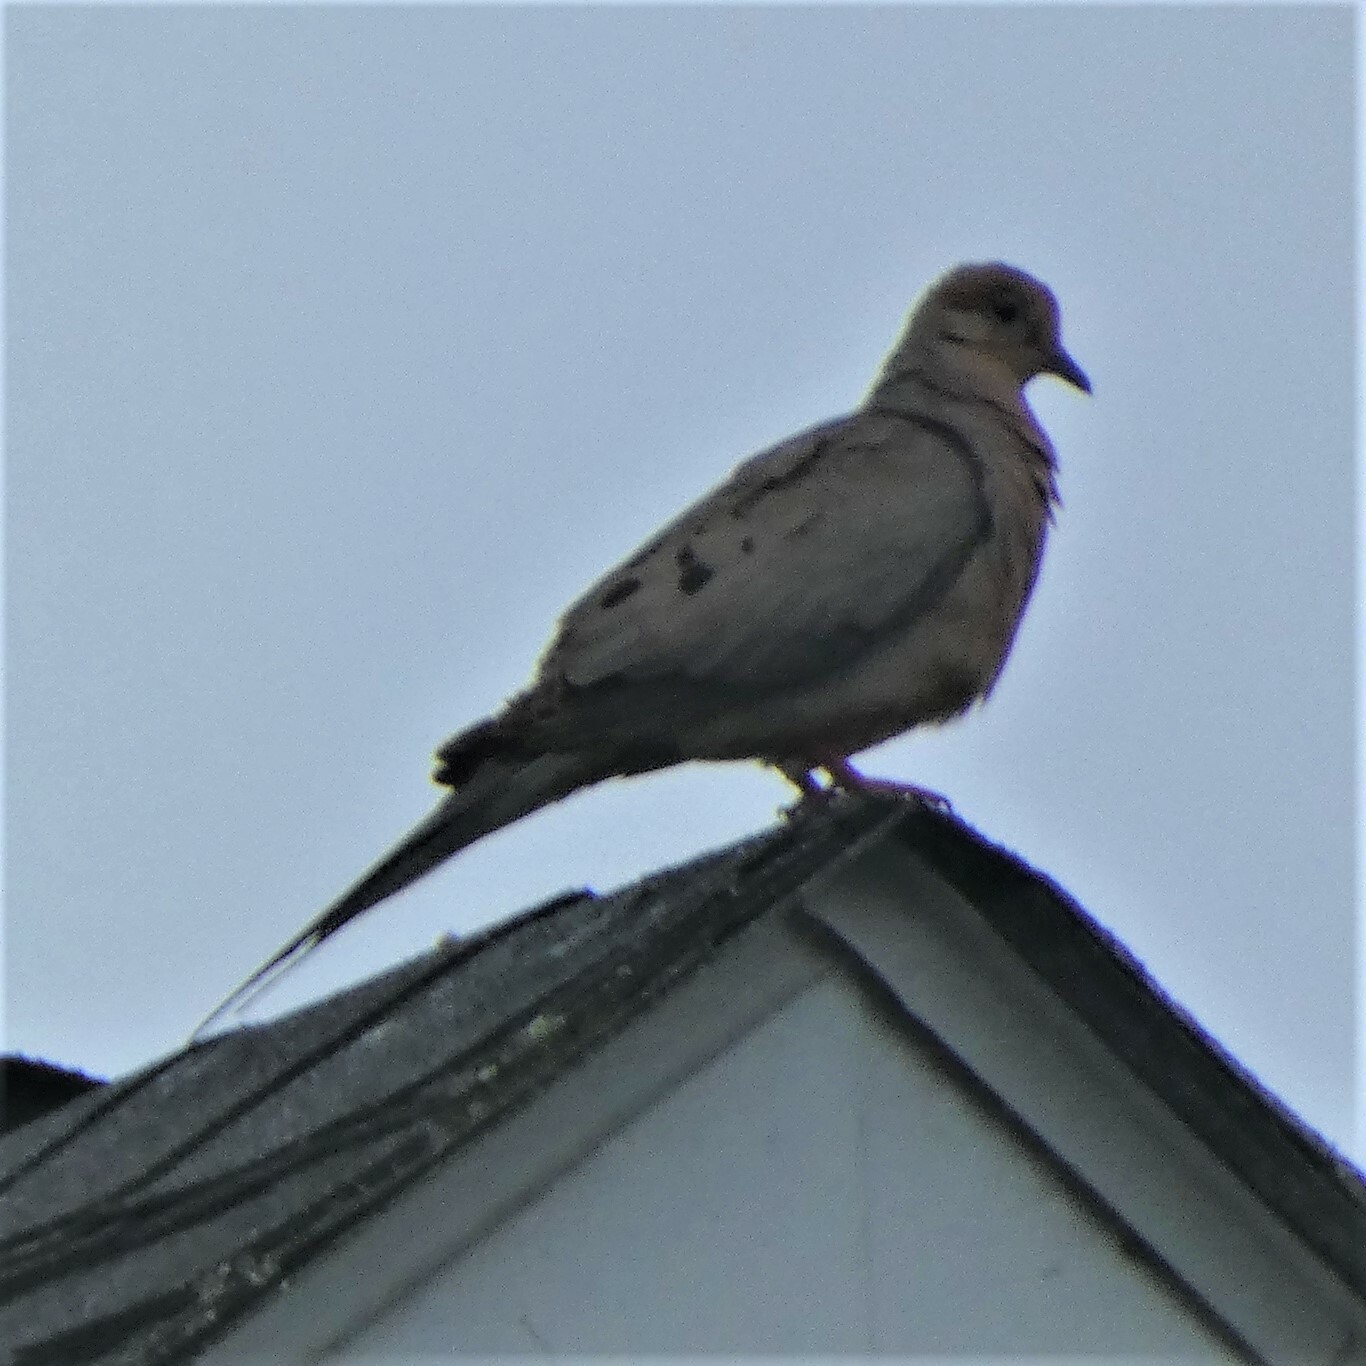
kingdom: Animalia
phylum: Chordata
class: Aves
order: Columbiformes
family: Columbidae
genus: Zenaida
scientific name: Zenaida macroura
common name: Mourning dove
